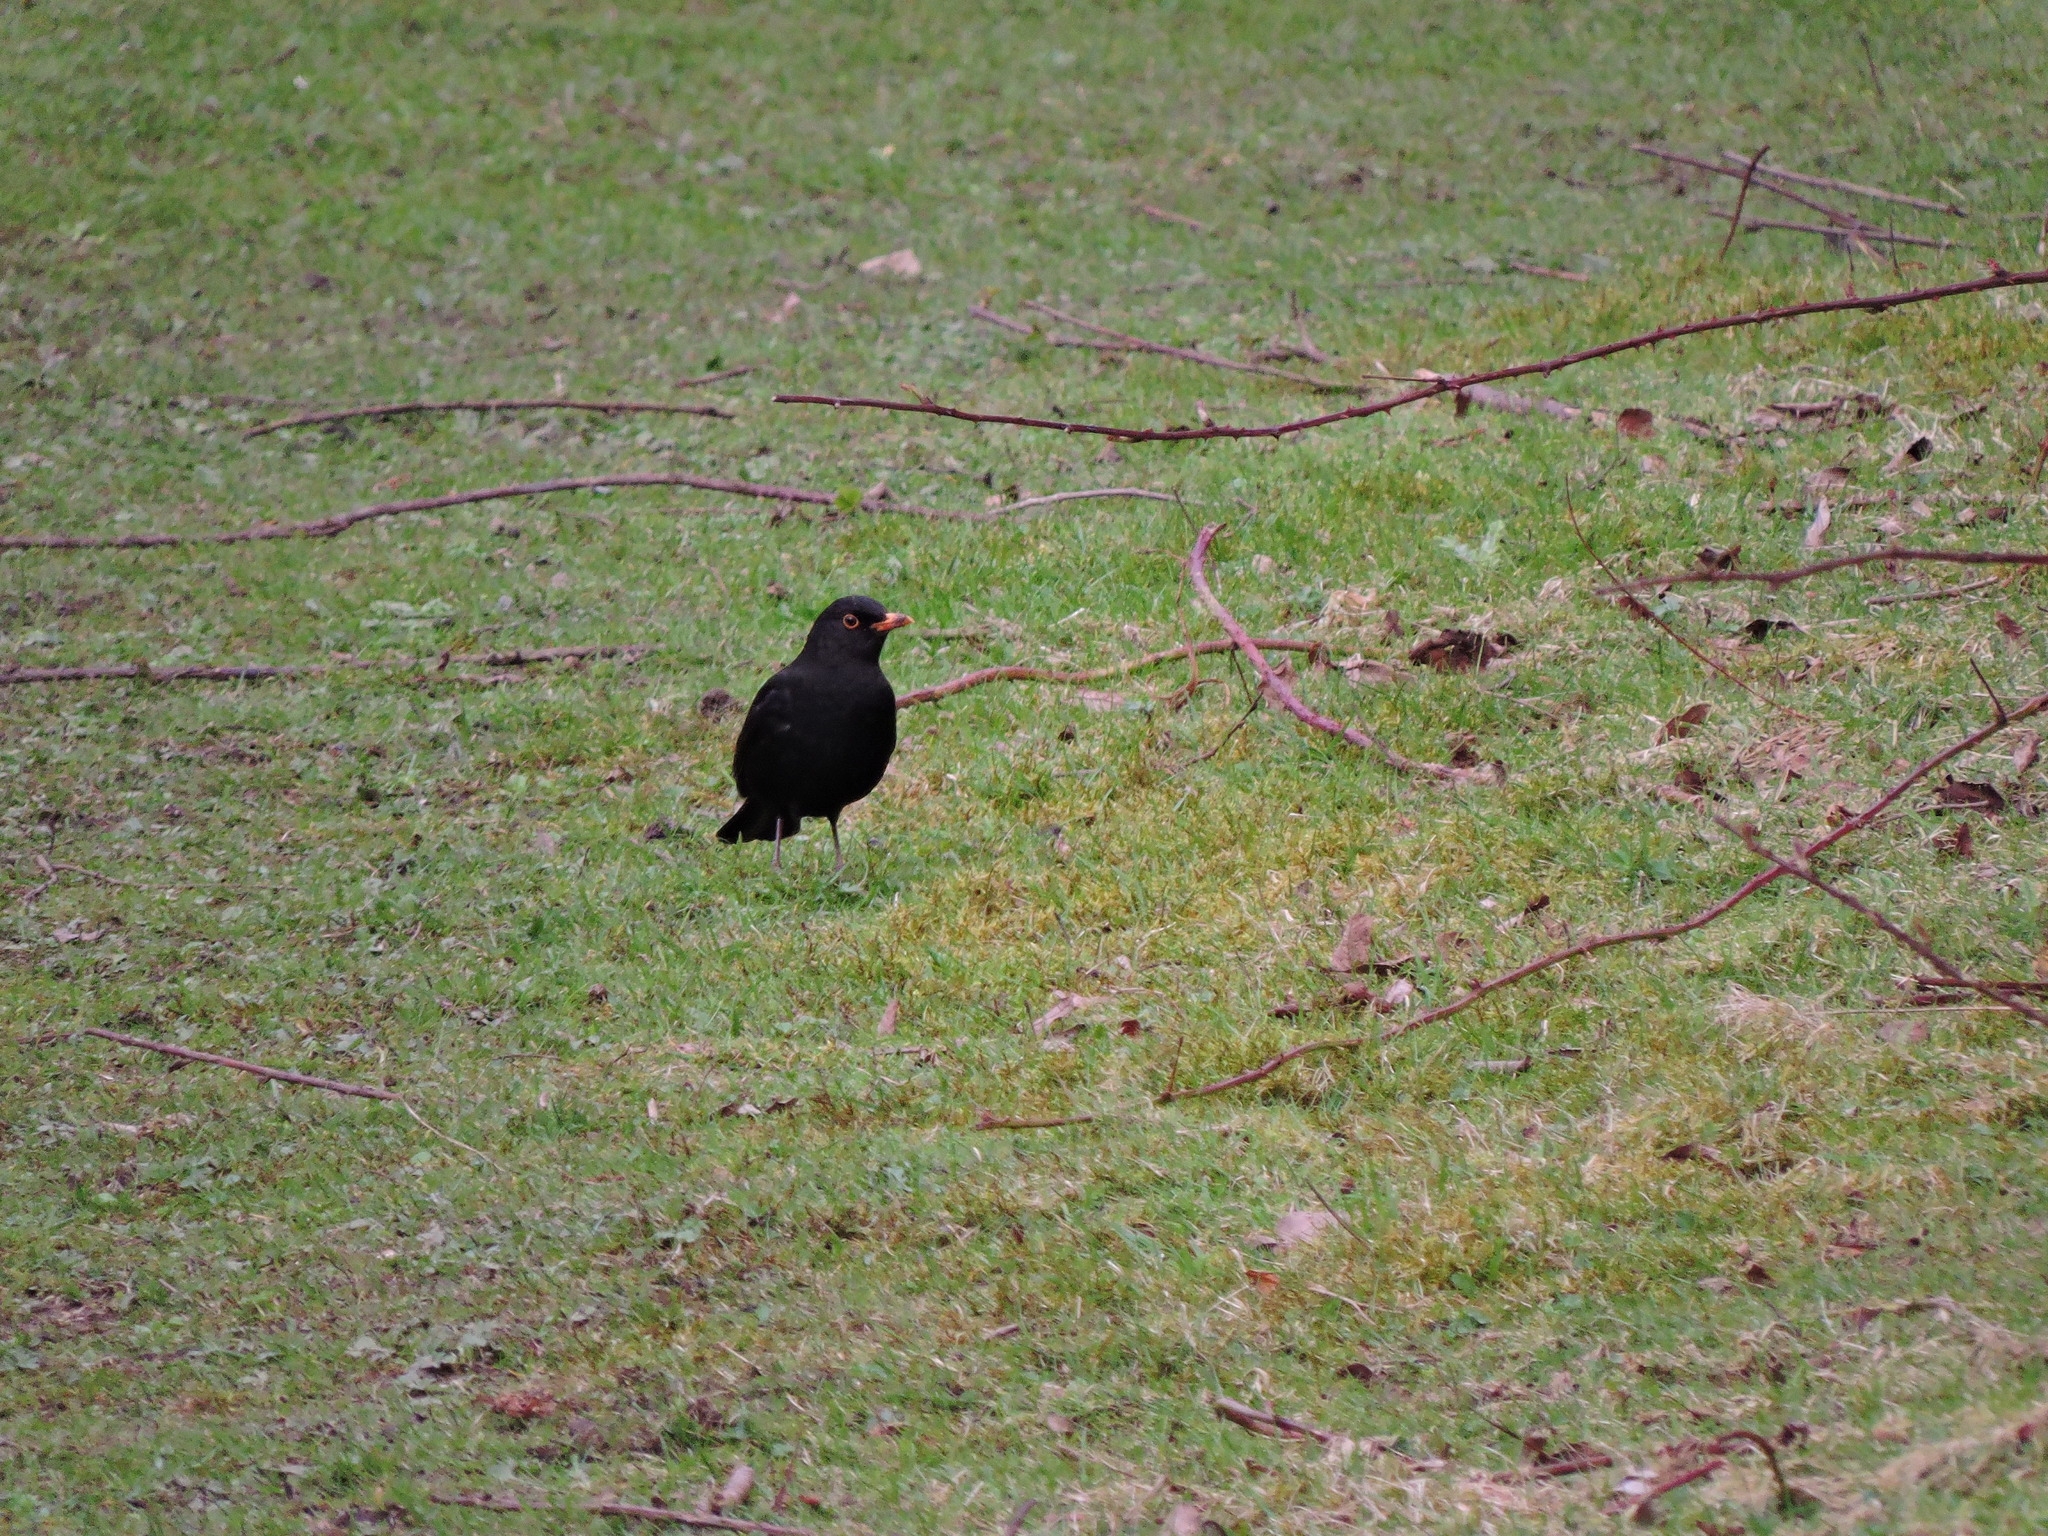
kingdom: Animalia
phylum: Chordata
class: Aves
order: Passeriformes
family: Turdidae
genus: Turdus
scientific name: Turdus merula
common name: Common blackbird
